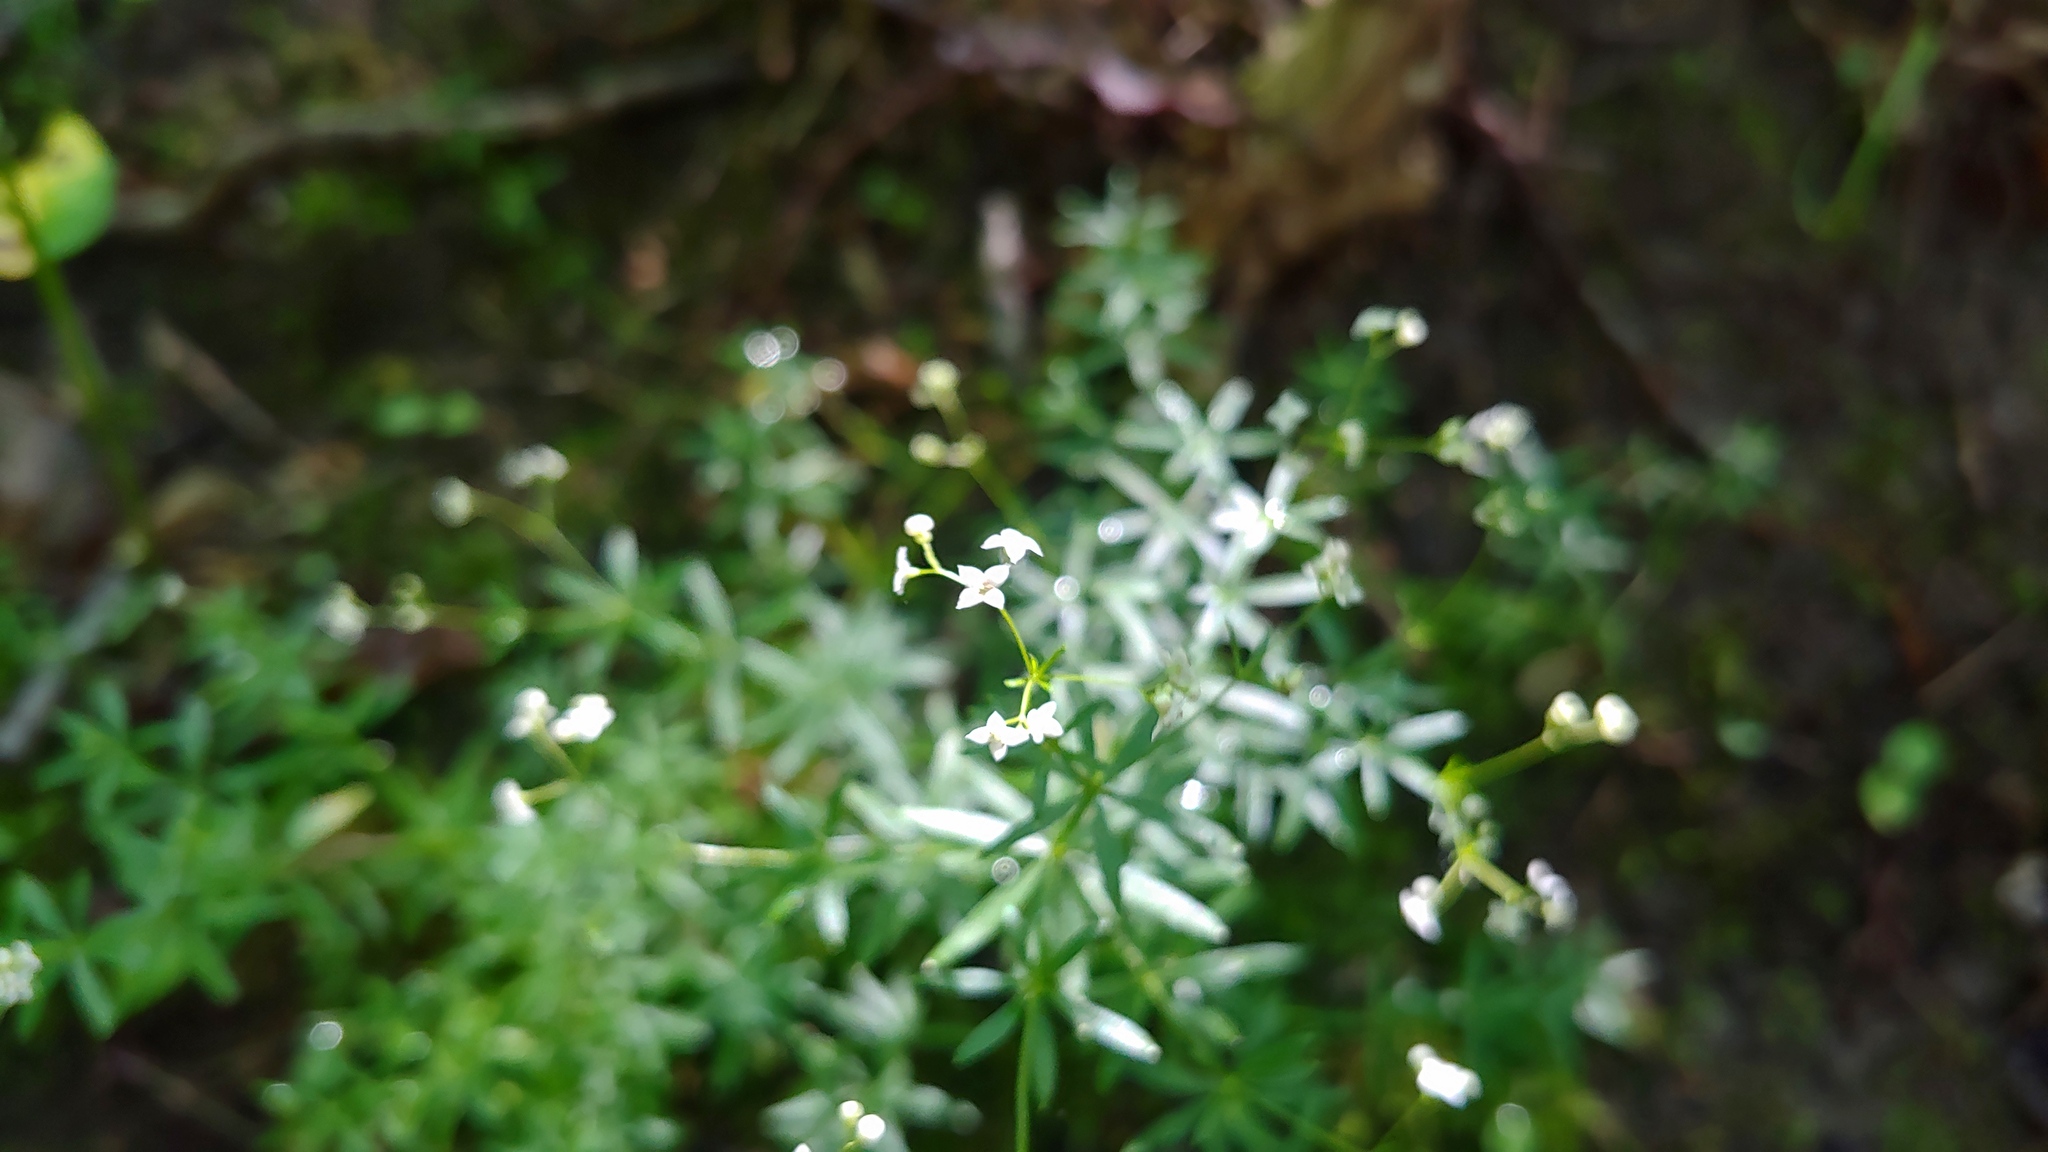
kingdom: Plantae
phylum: Tracheophyta
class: Magnoliopsida
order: Gentianales
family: Rubiaceae
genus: Galium
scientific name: Galium concinnum
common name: Shining bedstraw
